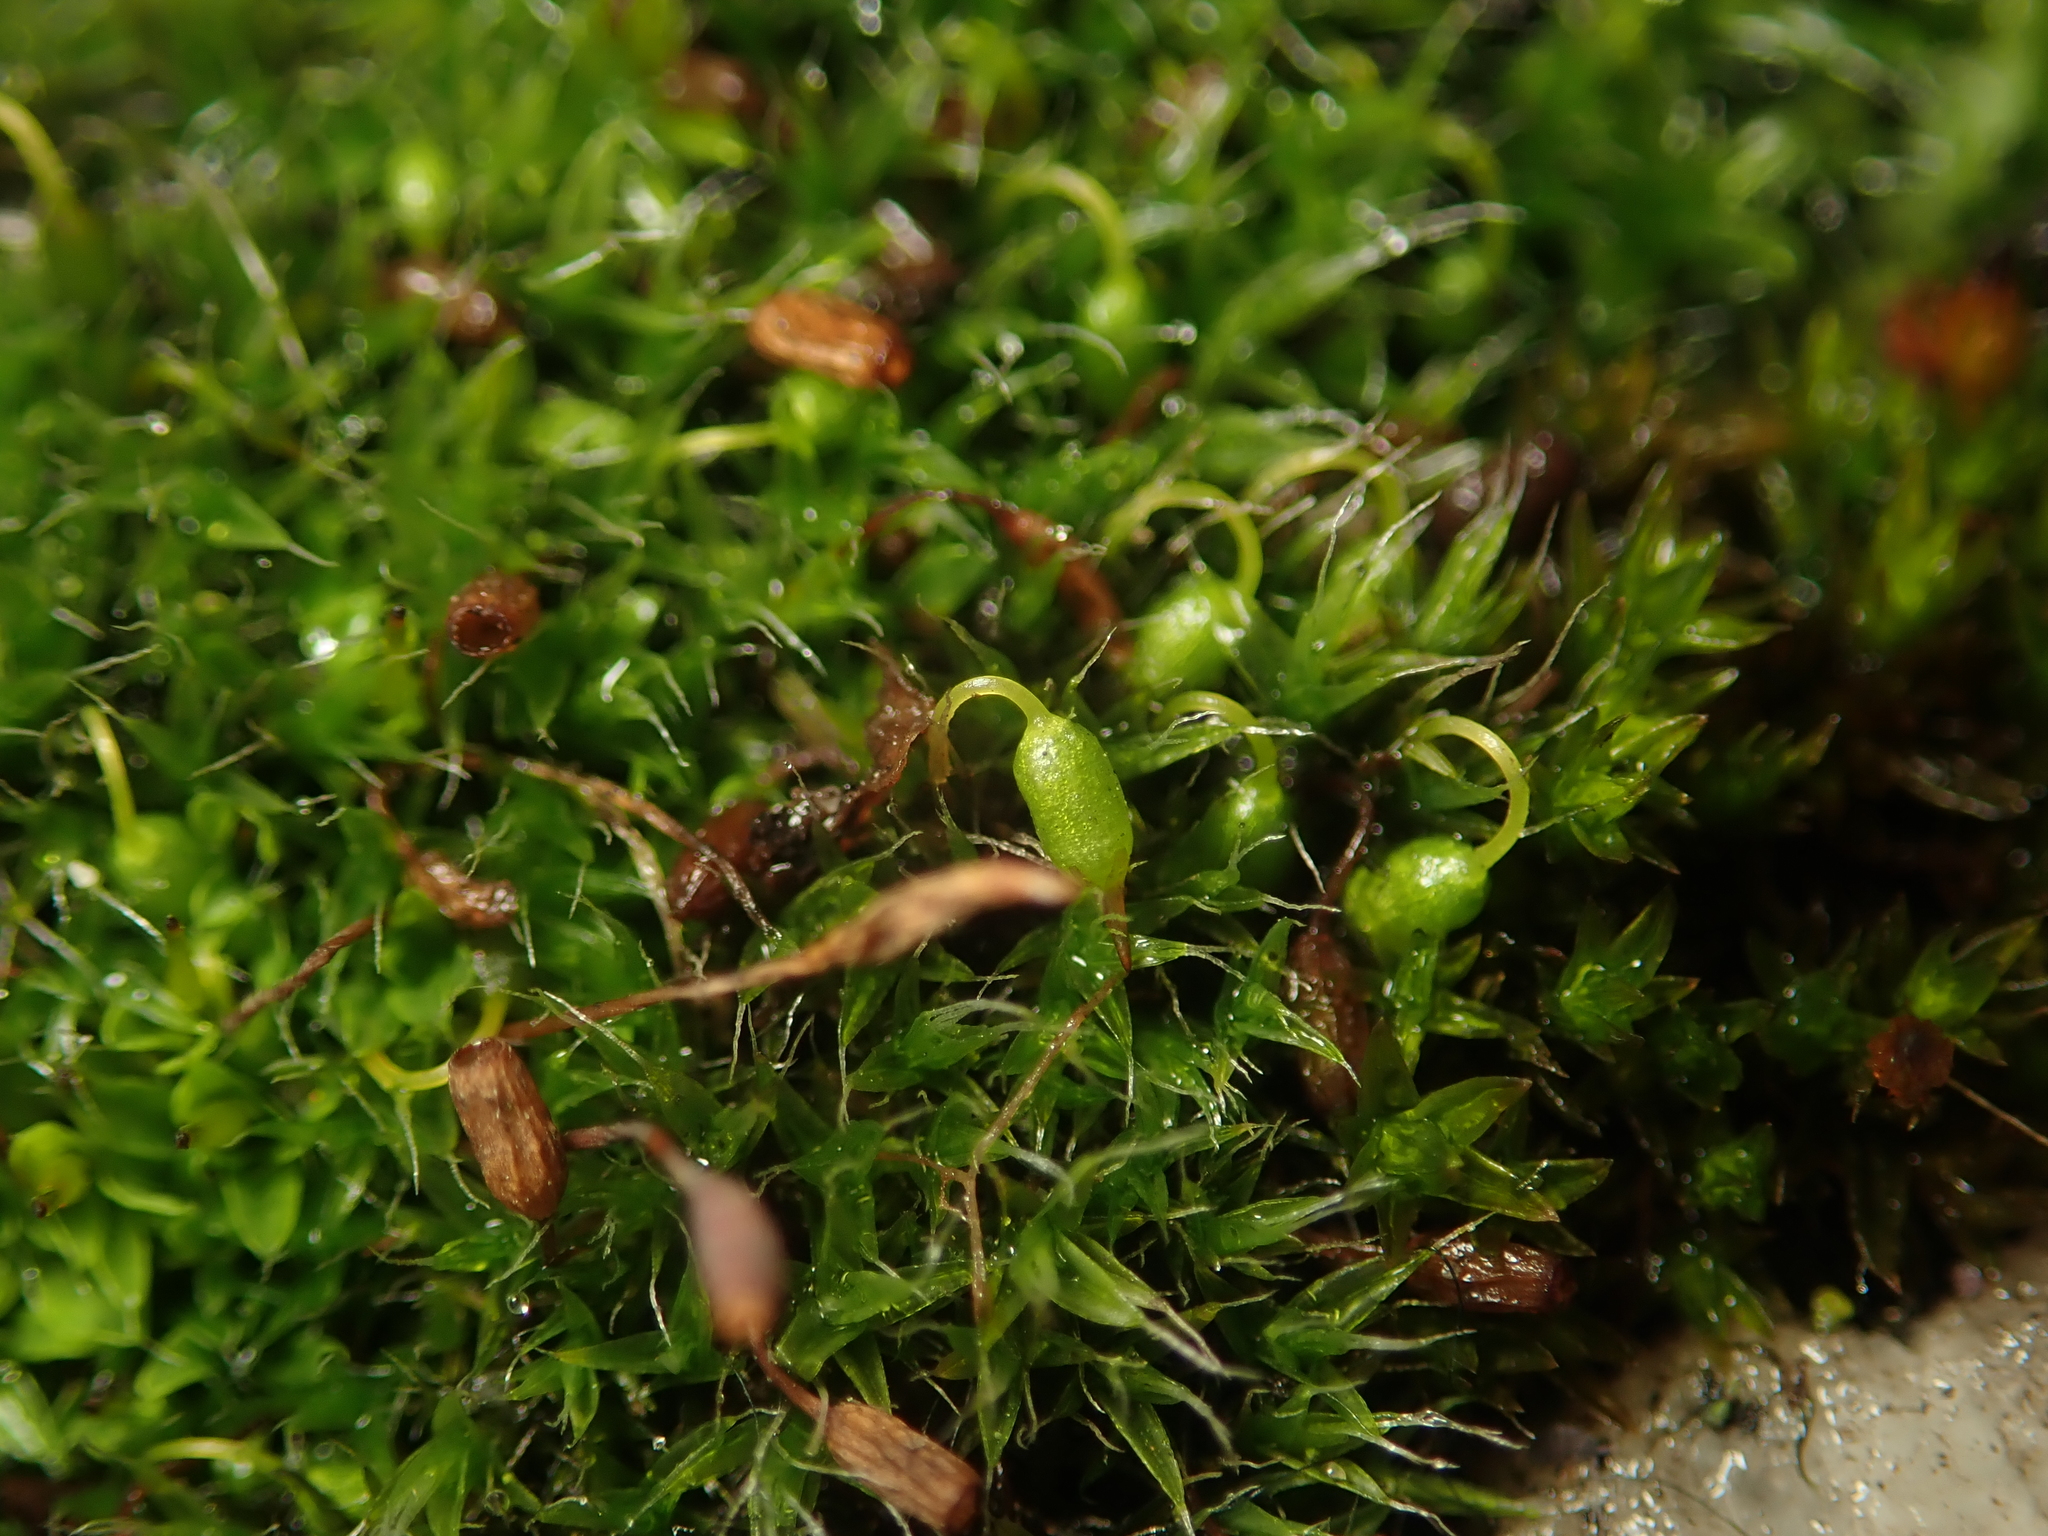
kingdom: Plantae
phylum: Bryophyta
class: Bryopsida
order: Grimmiales
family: Grimmiaceae
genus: Grimmia
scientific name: Grimmia pulvinata
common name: Grey-cushioned grimmia
